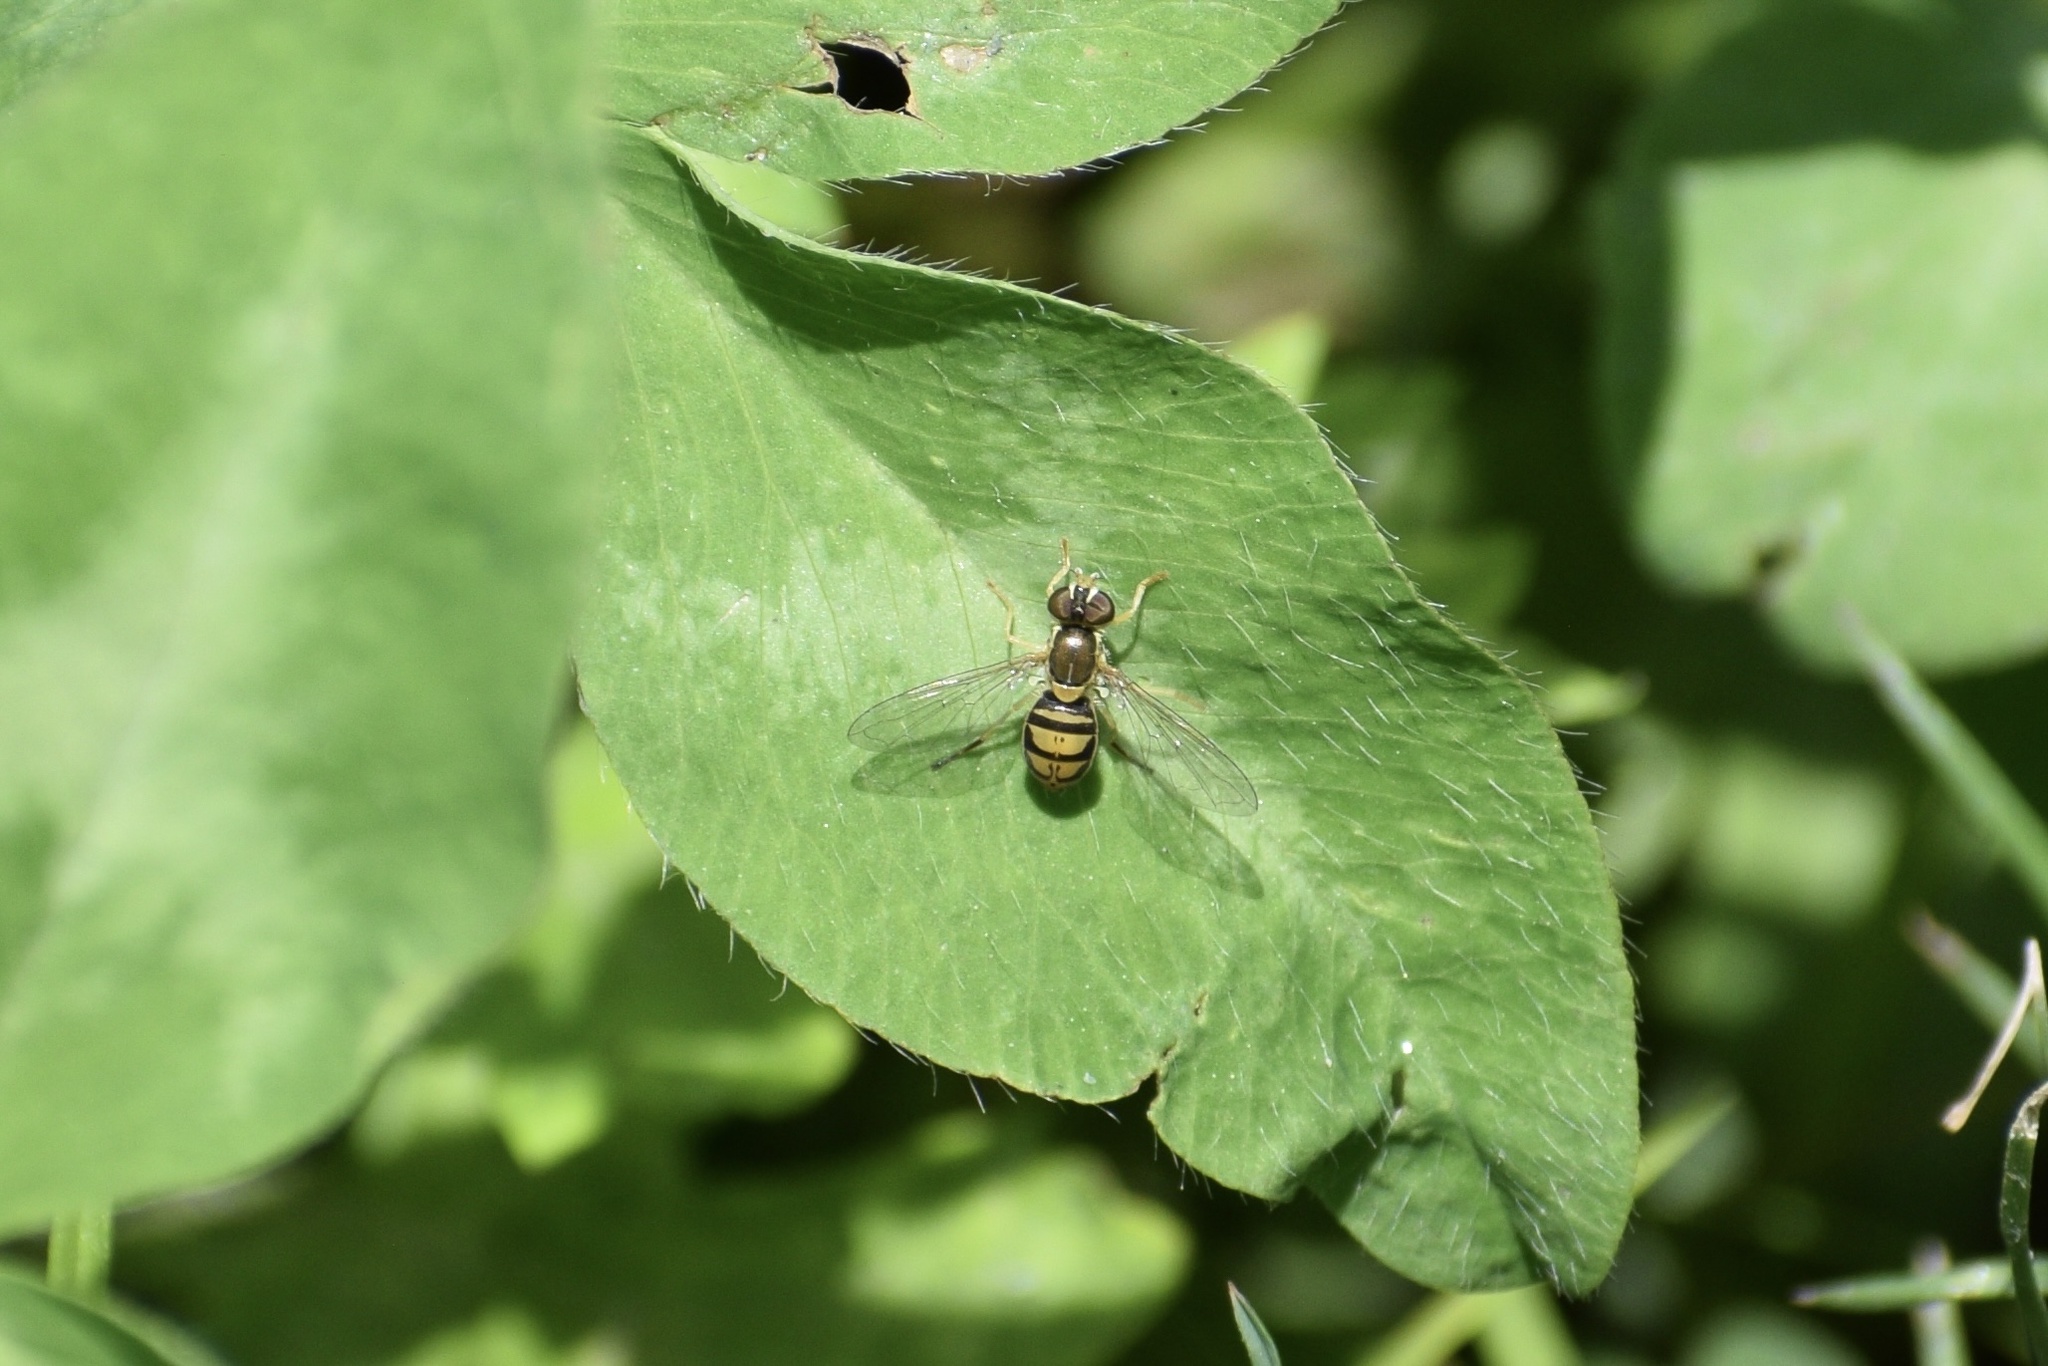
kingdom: Animalia
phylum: Arthropoda
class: Insecta
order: Diptera
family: Syrphidae
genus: Toxomerus
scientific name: Toxomerus marginatus
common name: Syrphid fly
